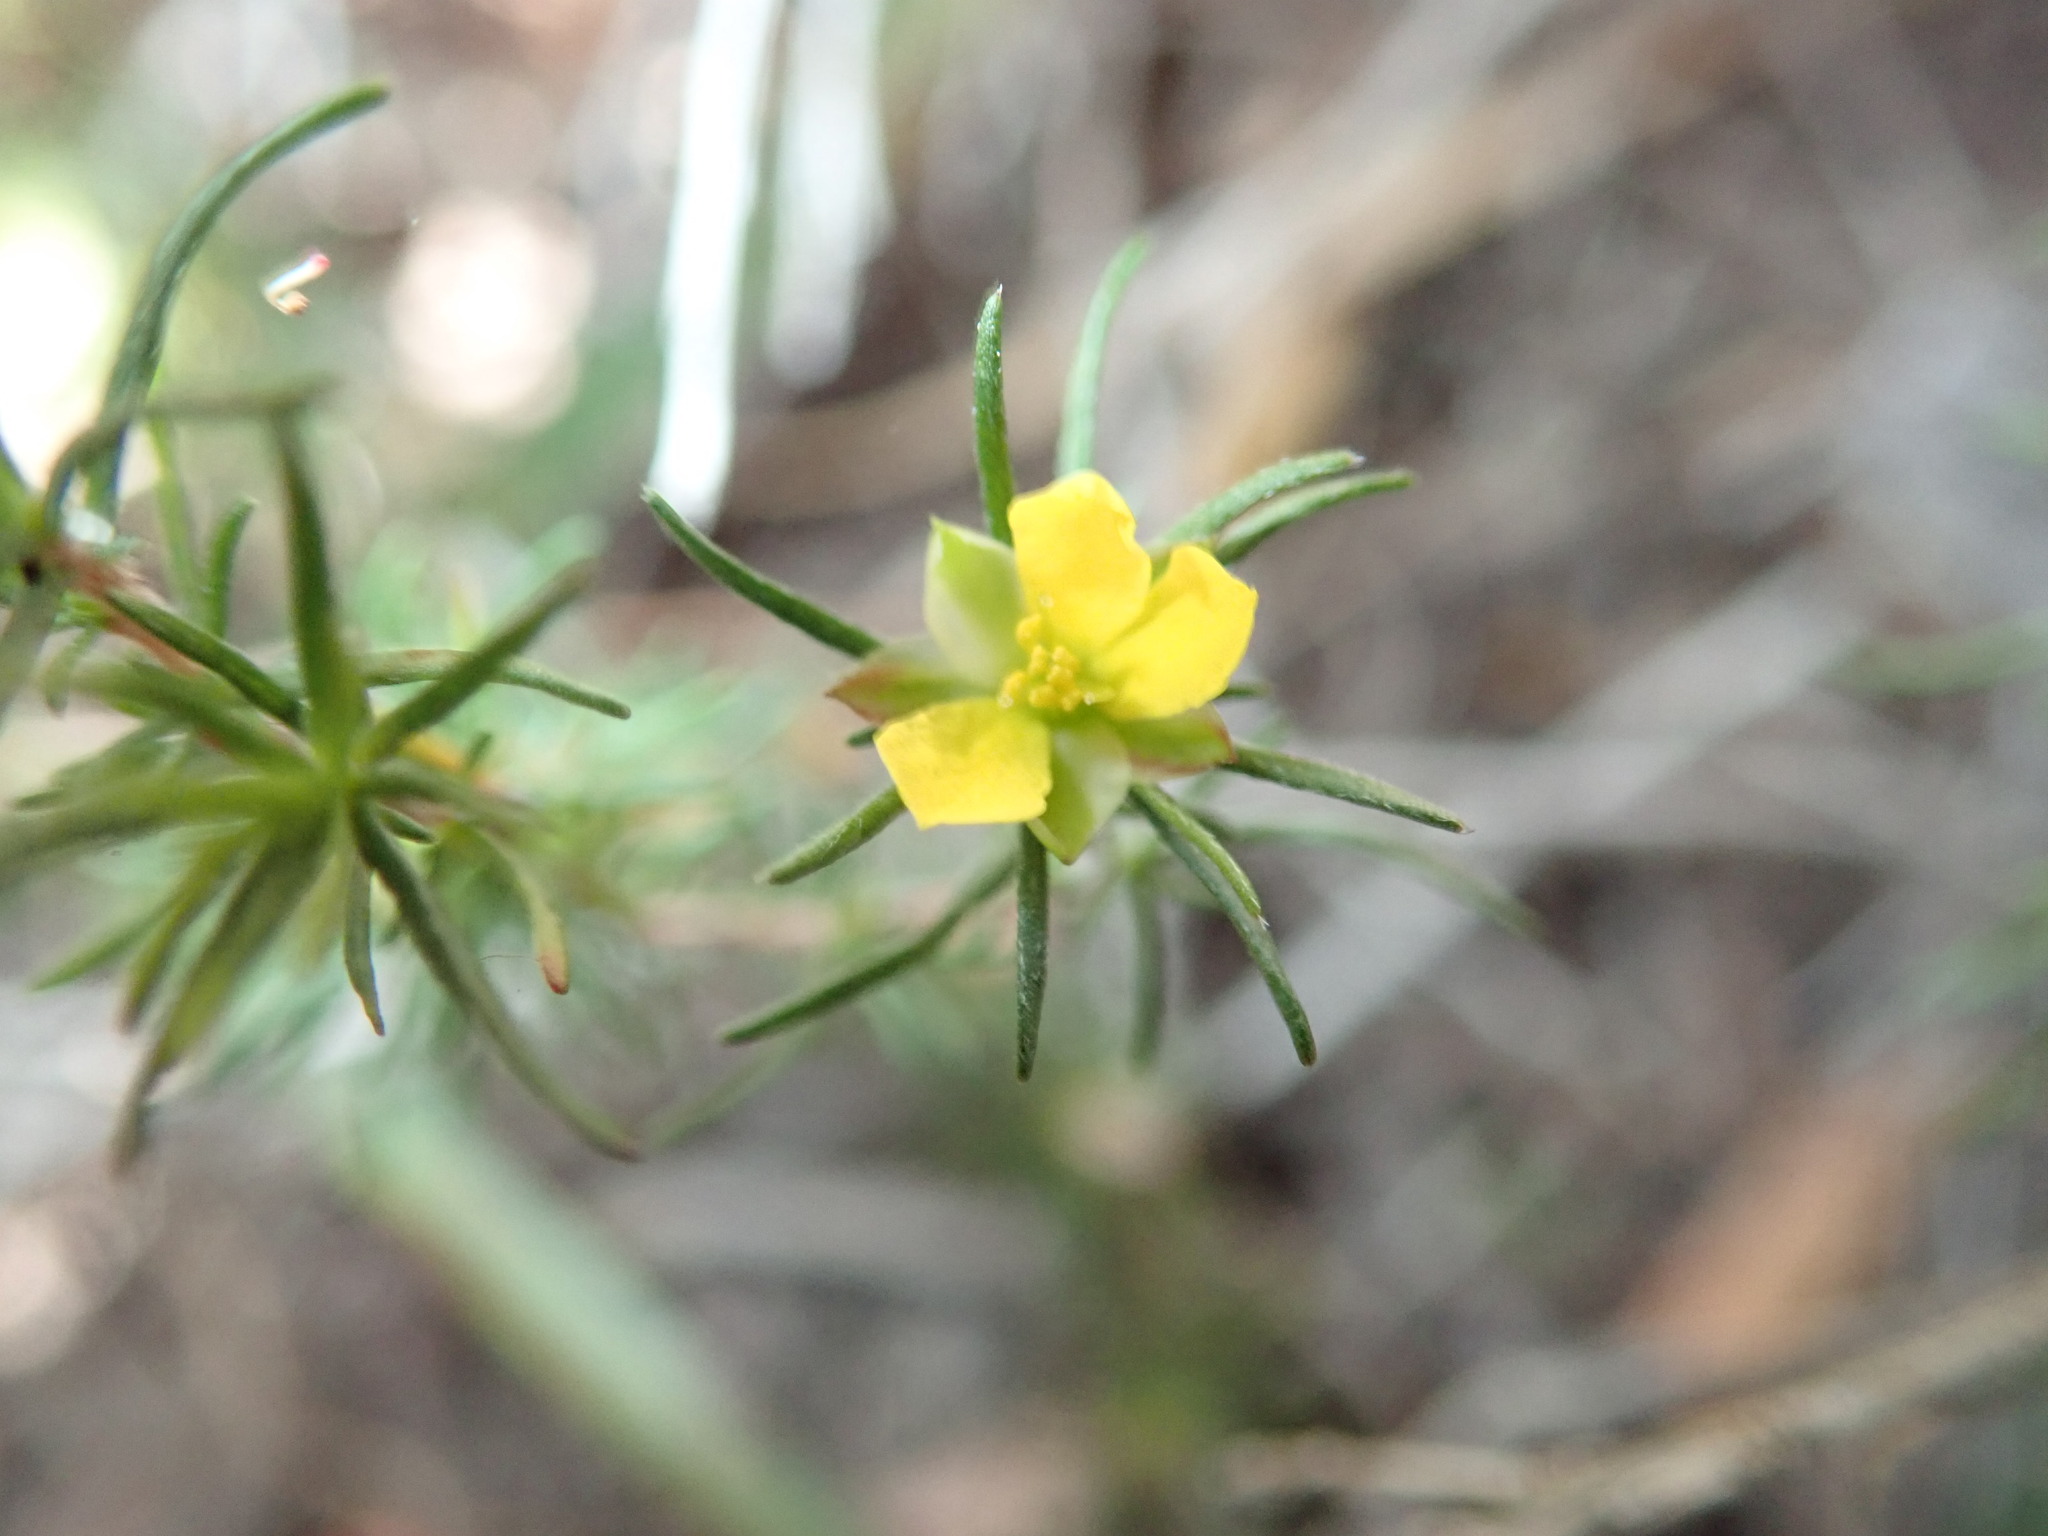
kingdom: Plantae
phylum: Tracheophyta
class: Magnoliopsida
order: Dilleniales
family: Dilleniaceae
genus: Hibbertia
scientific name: Hibbertia fasciculata
